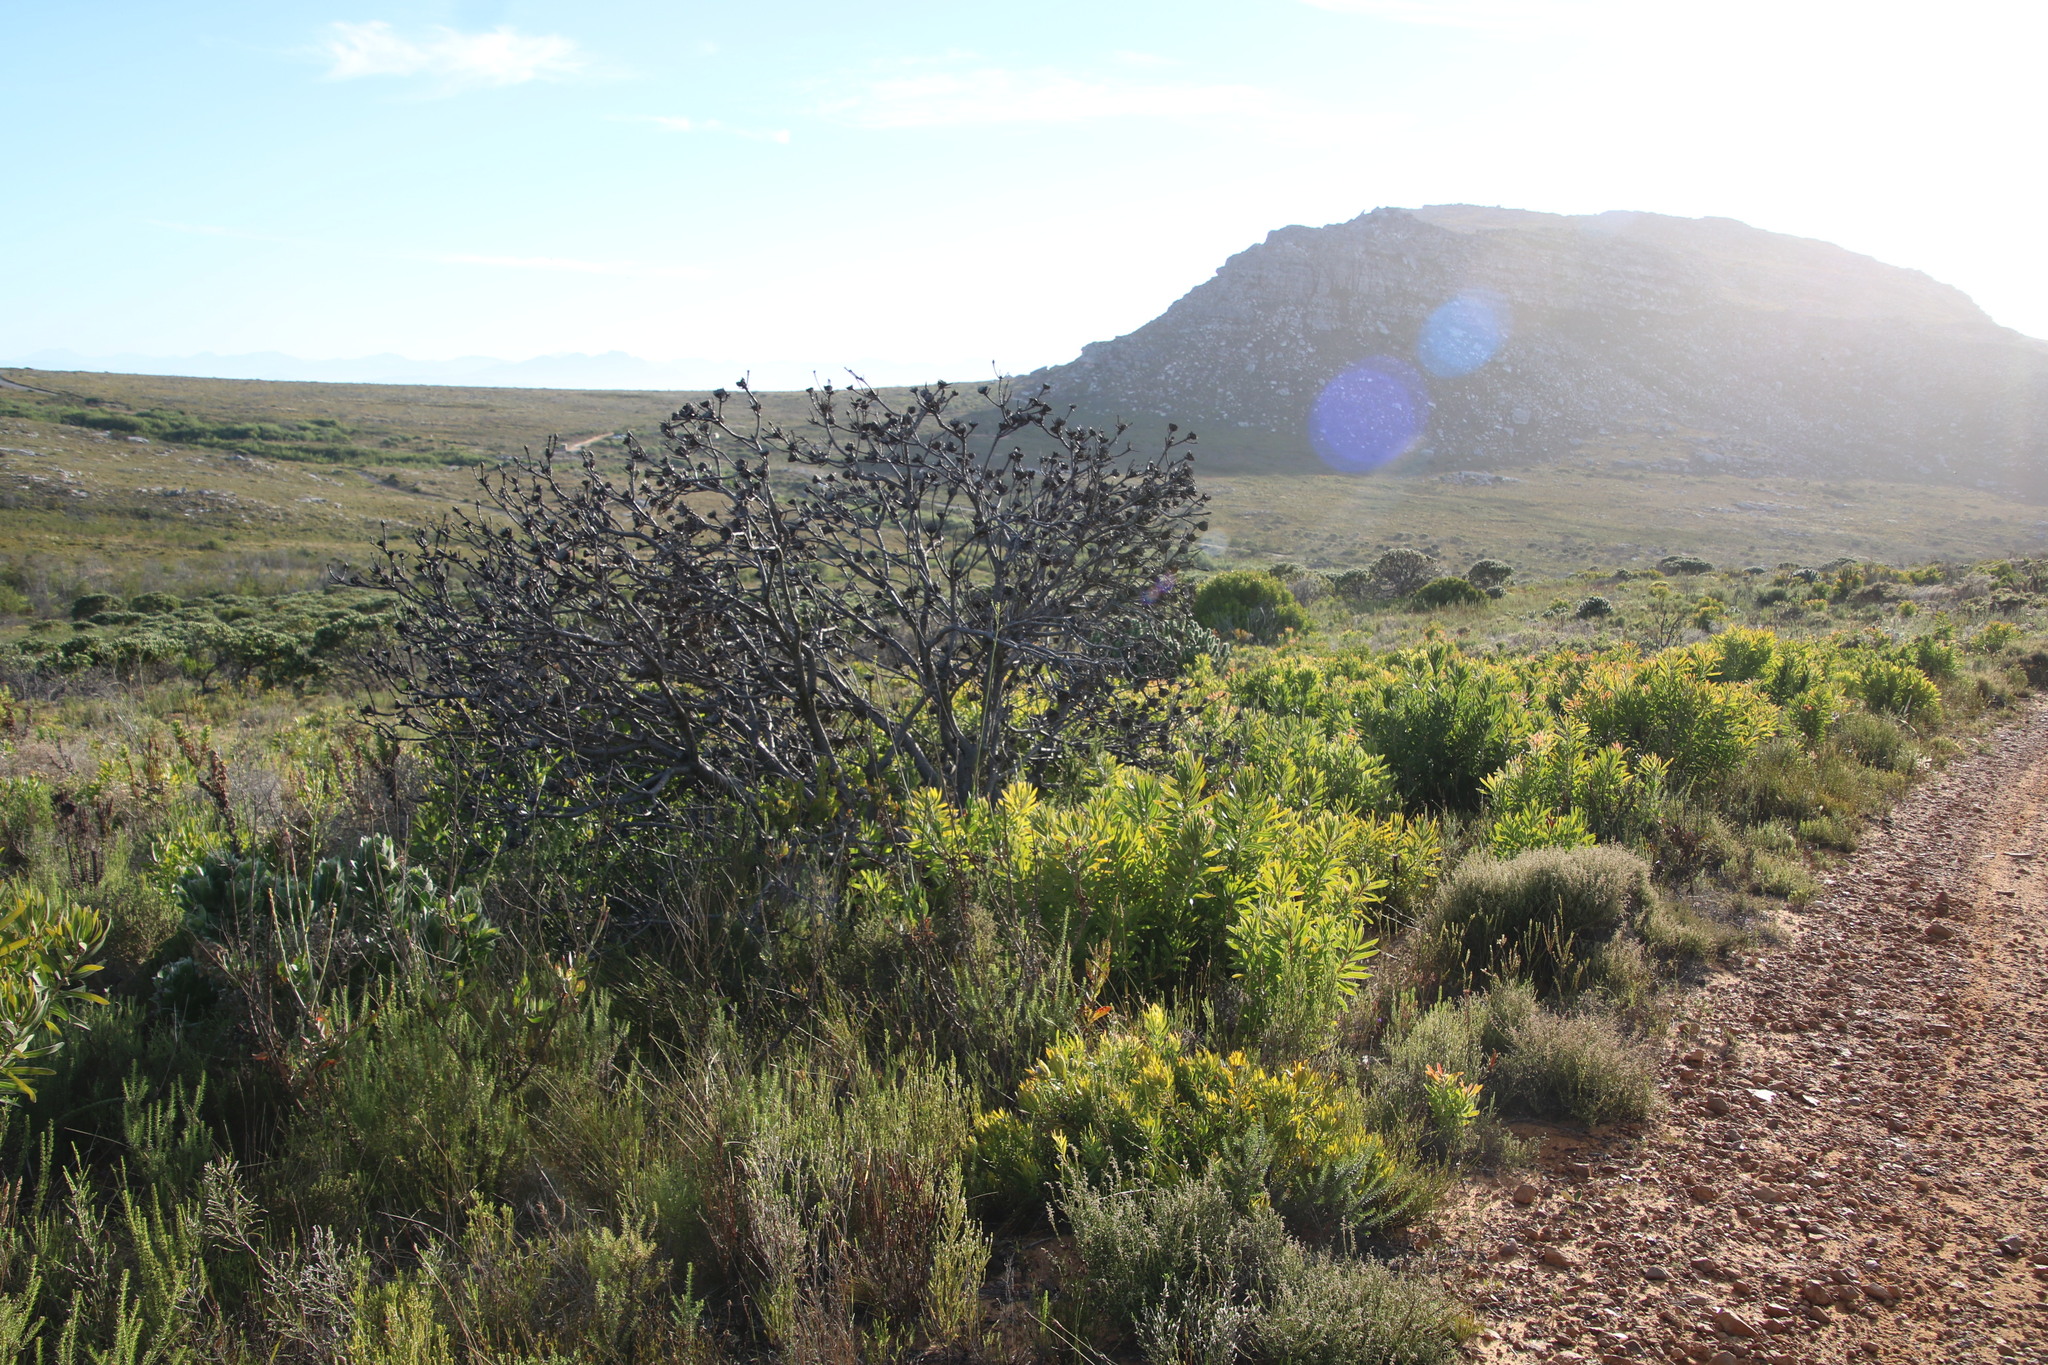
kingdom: Plantae
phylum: Tracheophyta
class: Magnoliopsida
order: Proteales
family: Proteaceae
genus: Protea
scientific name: Protea lepidocarpodendron
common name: Black-bearded protea
